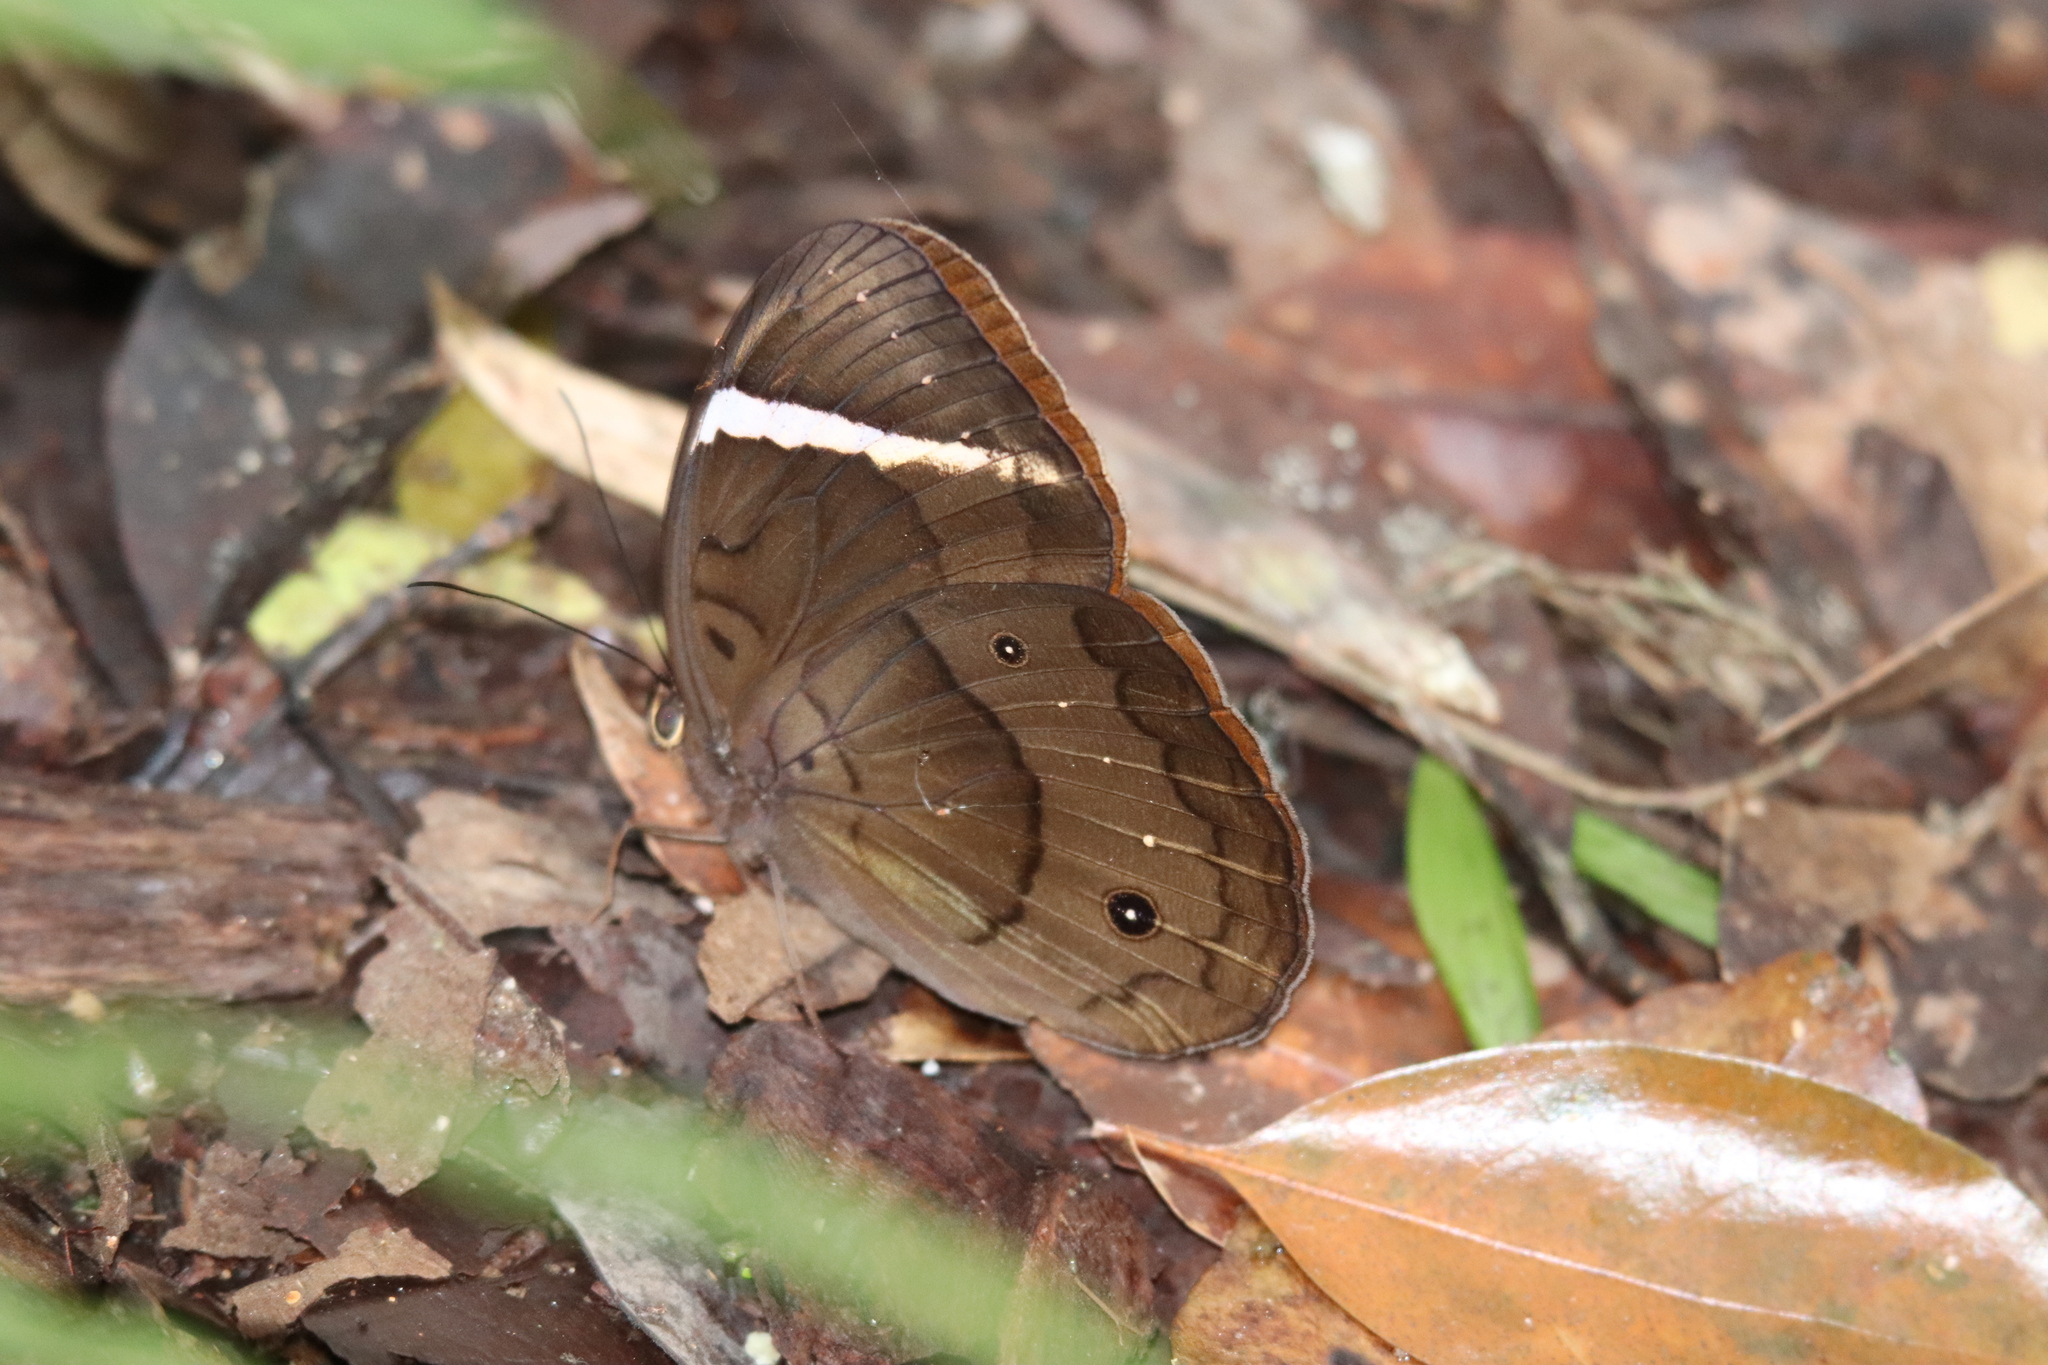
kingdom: Animalia
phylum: Arthropoda
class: Insecta
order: Lepidoptera
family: Nymphalidae
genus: Faunis
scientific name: Faunis menado
